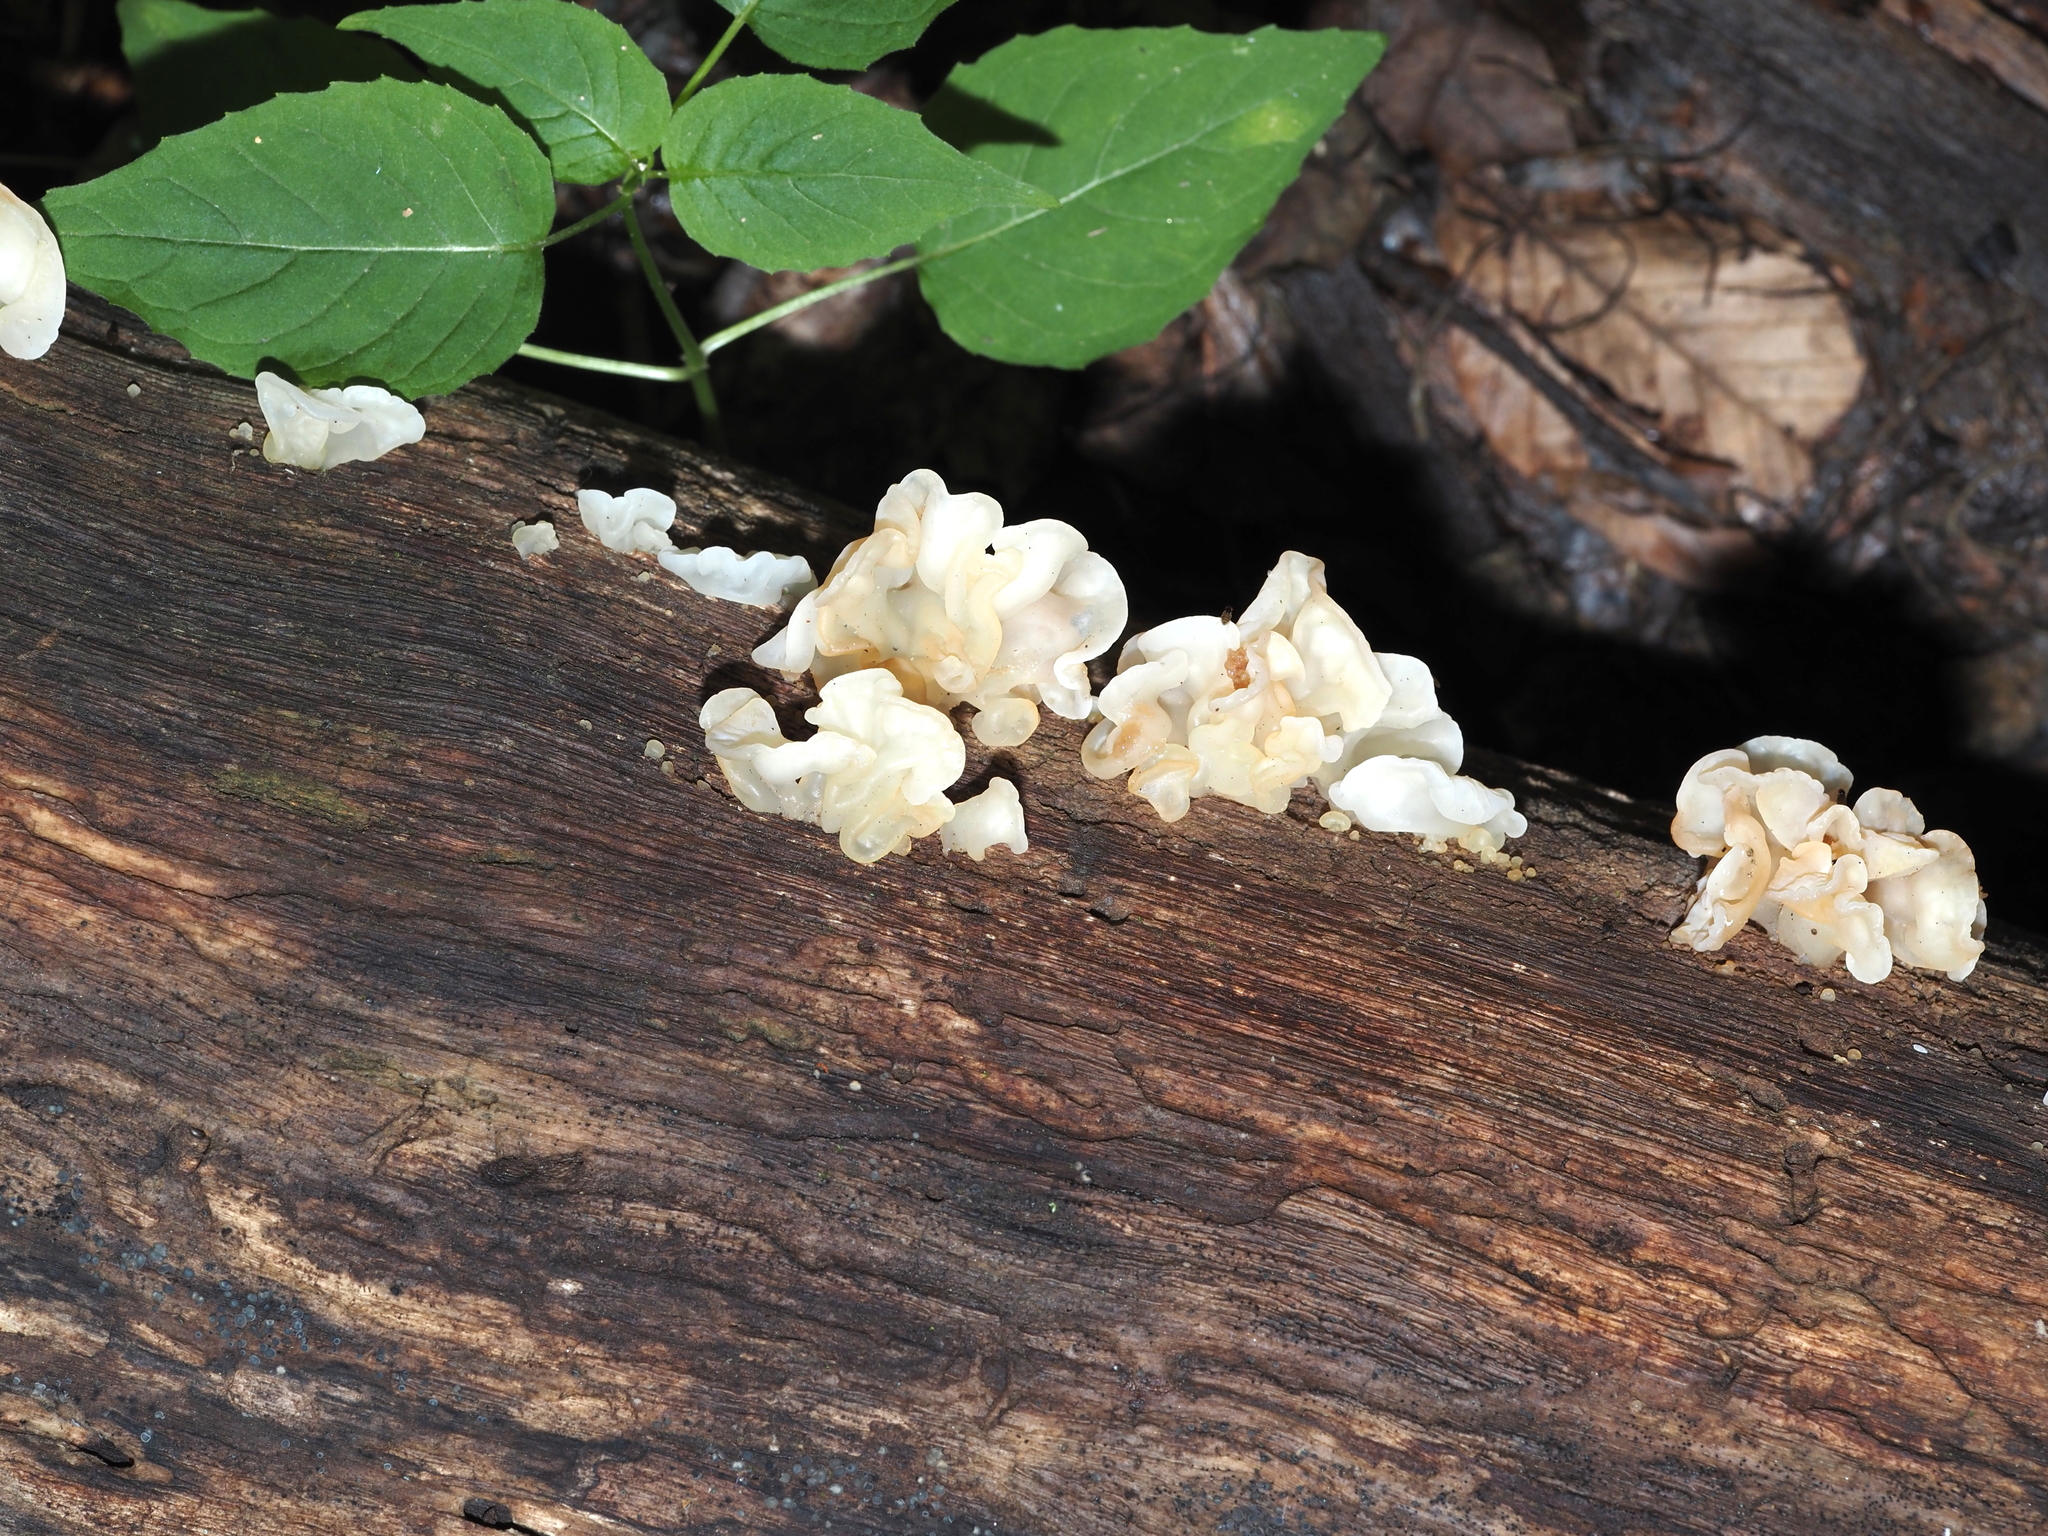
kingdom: Fungi
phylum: Basidiomycota
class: Agaricomycetes
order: Auriculariales
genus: Ductifera
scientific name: Ductifera pululahuana
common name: White jelly fungus
